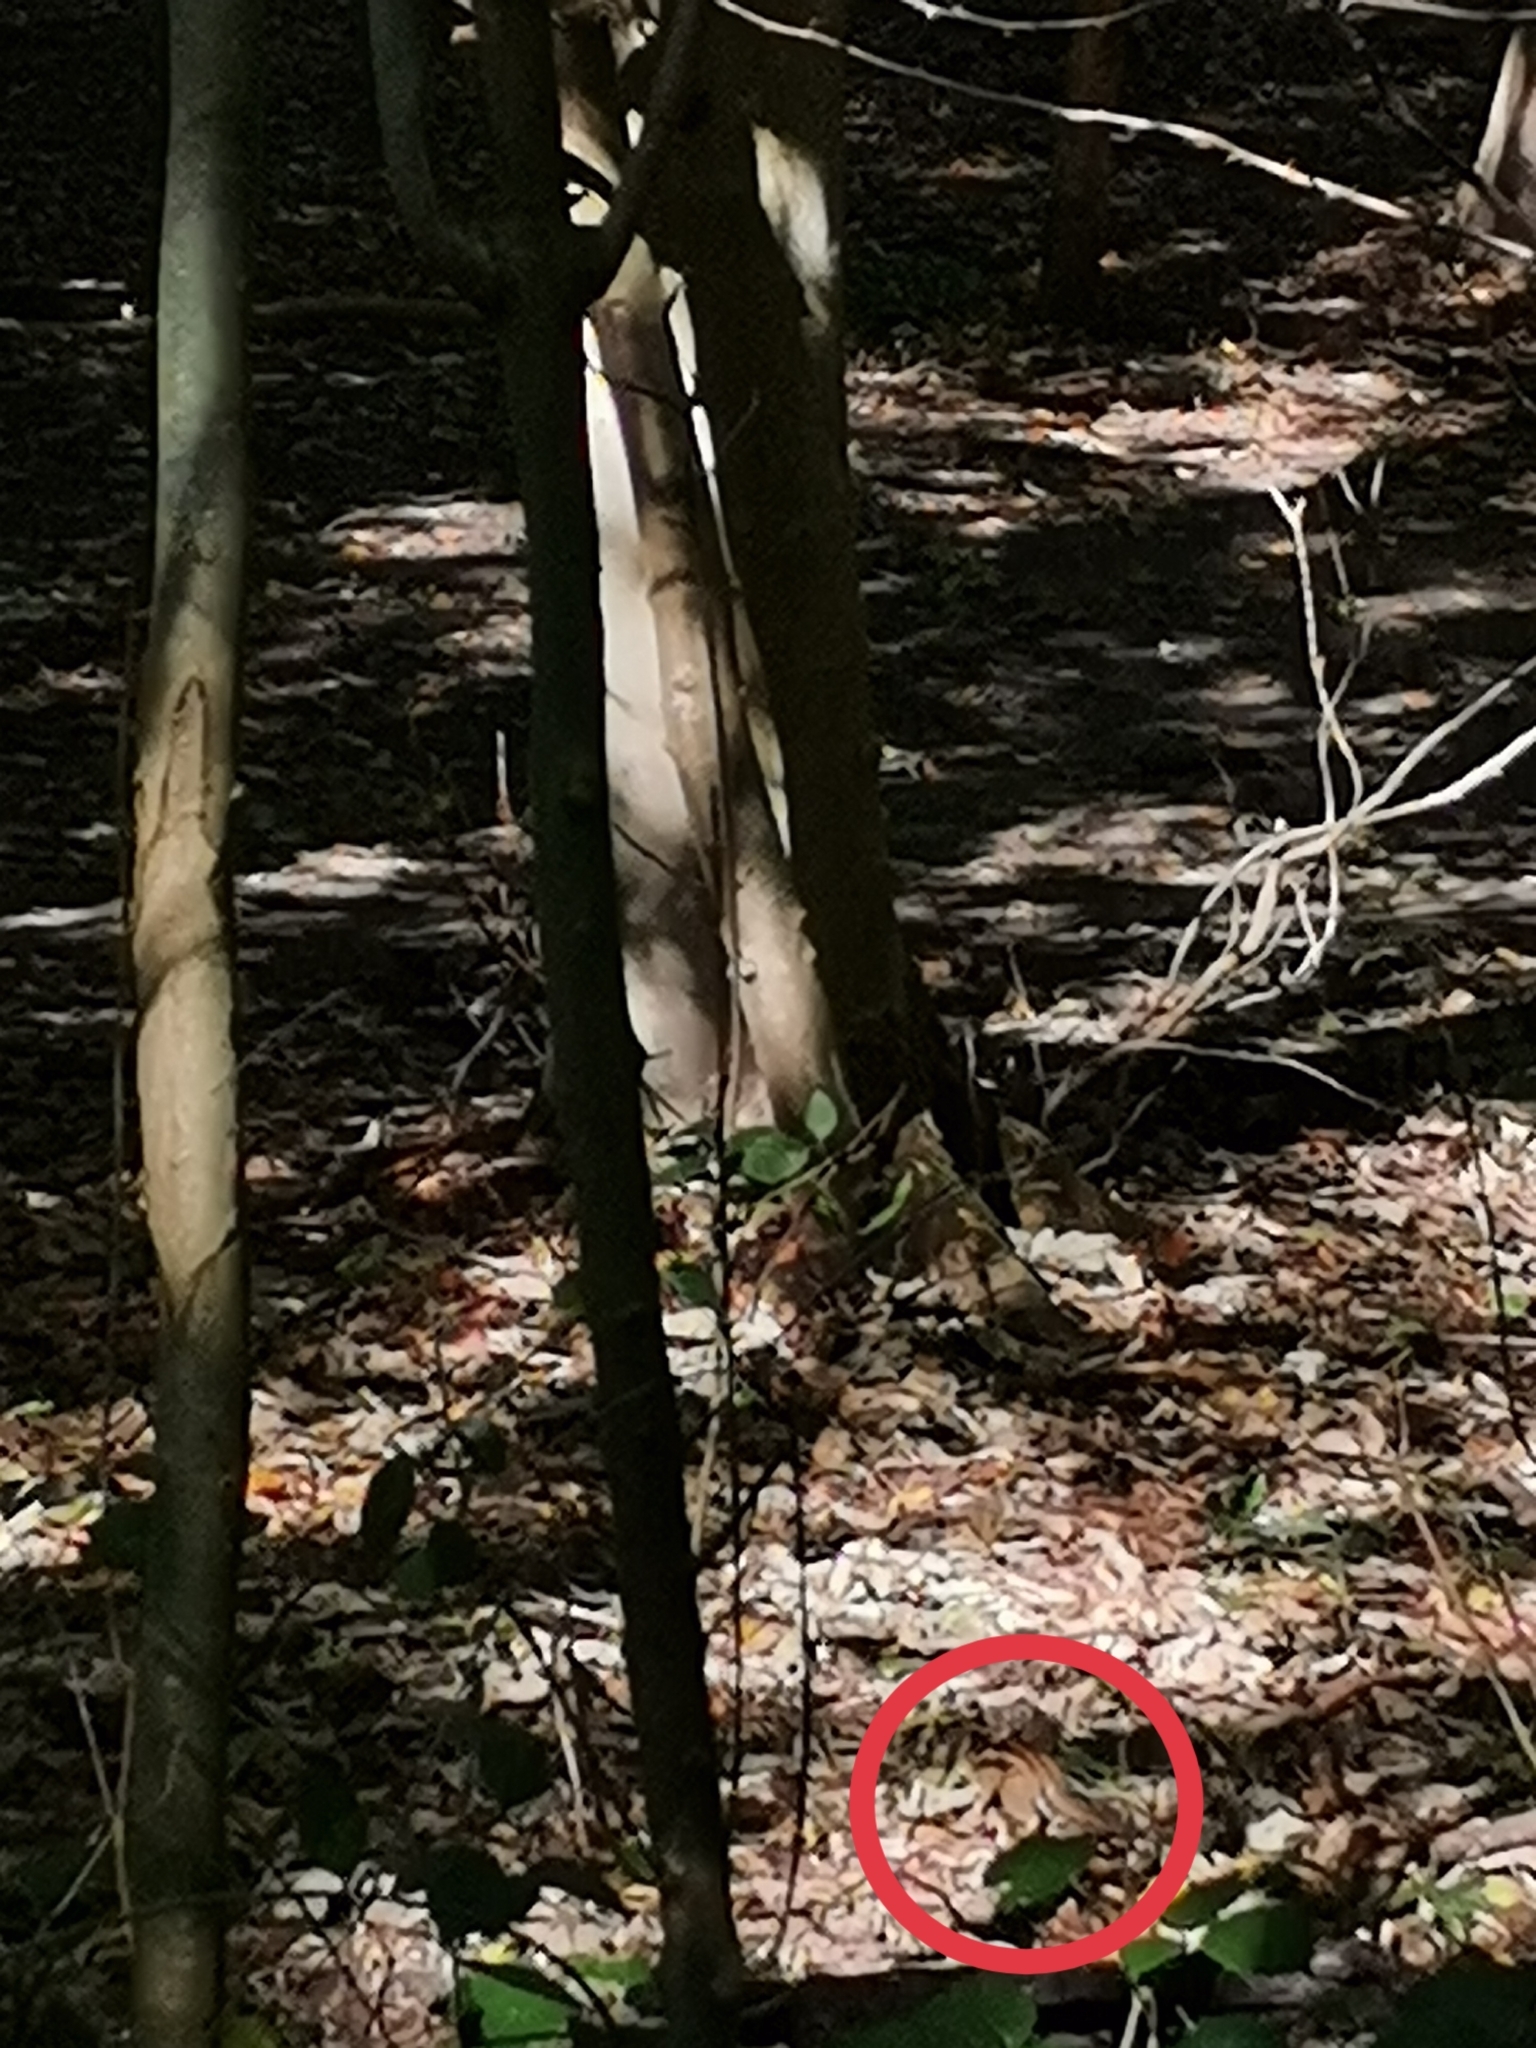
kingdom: Animalia
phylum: Chordata
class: Mammalia
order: Rodentia
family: Sciuridae
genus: Tamias
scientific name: Tamias sibiricus
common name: Siberian chipmunk
